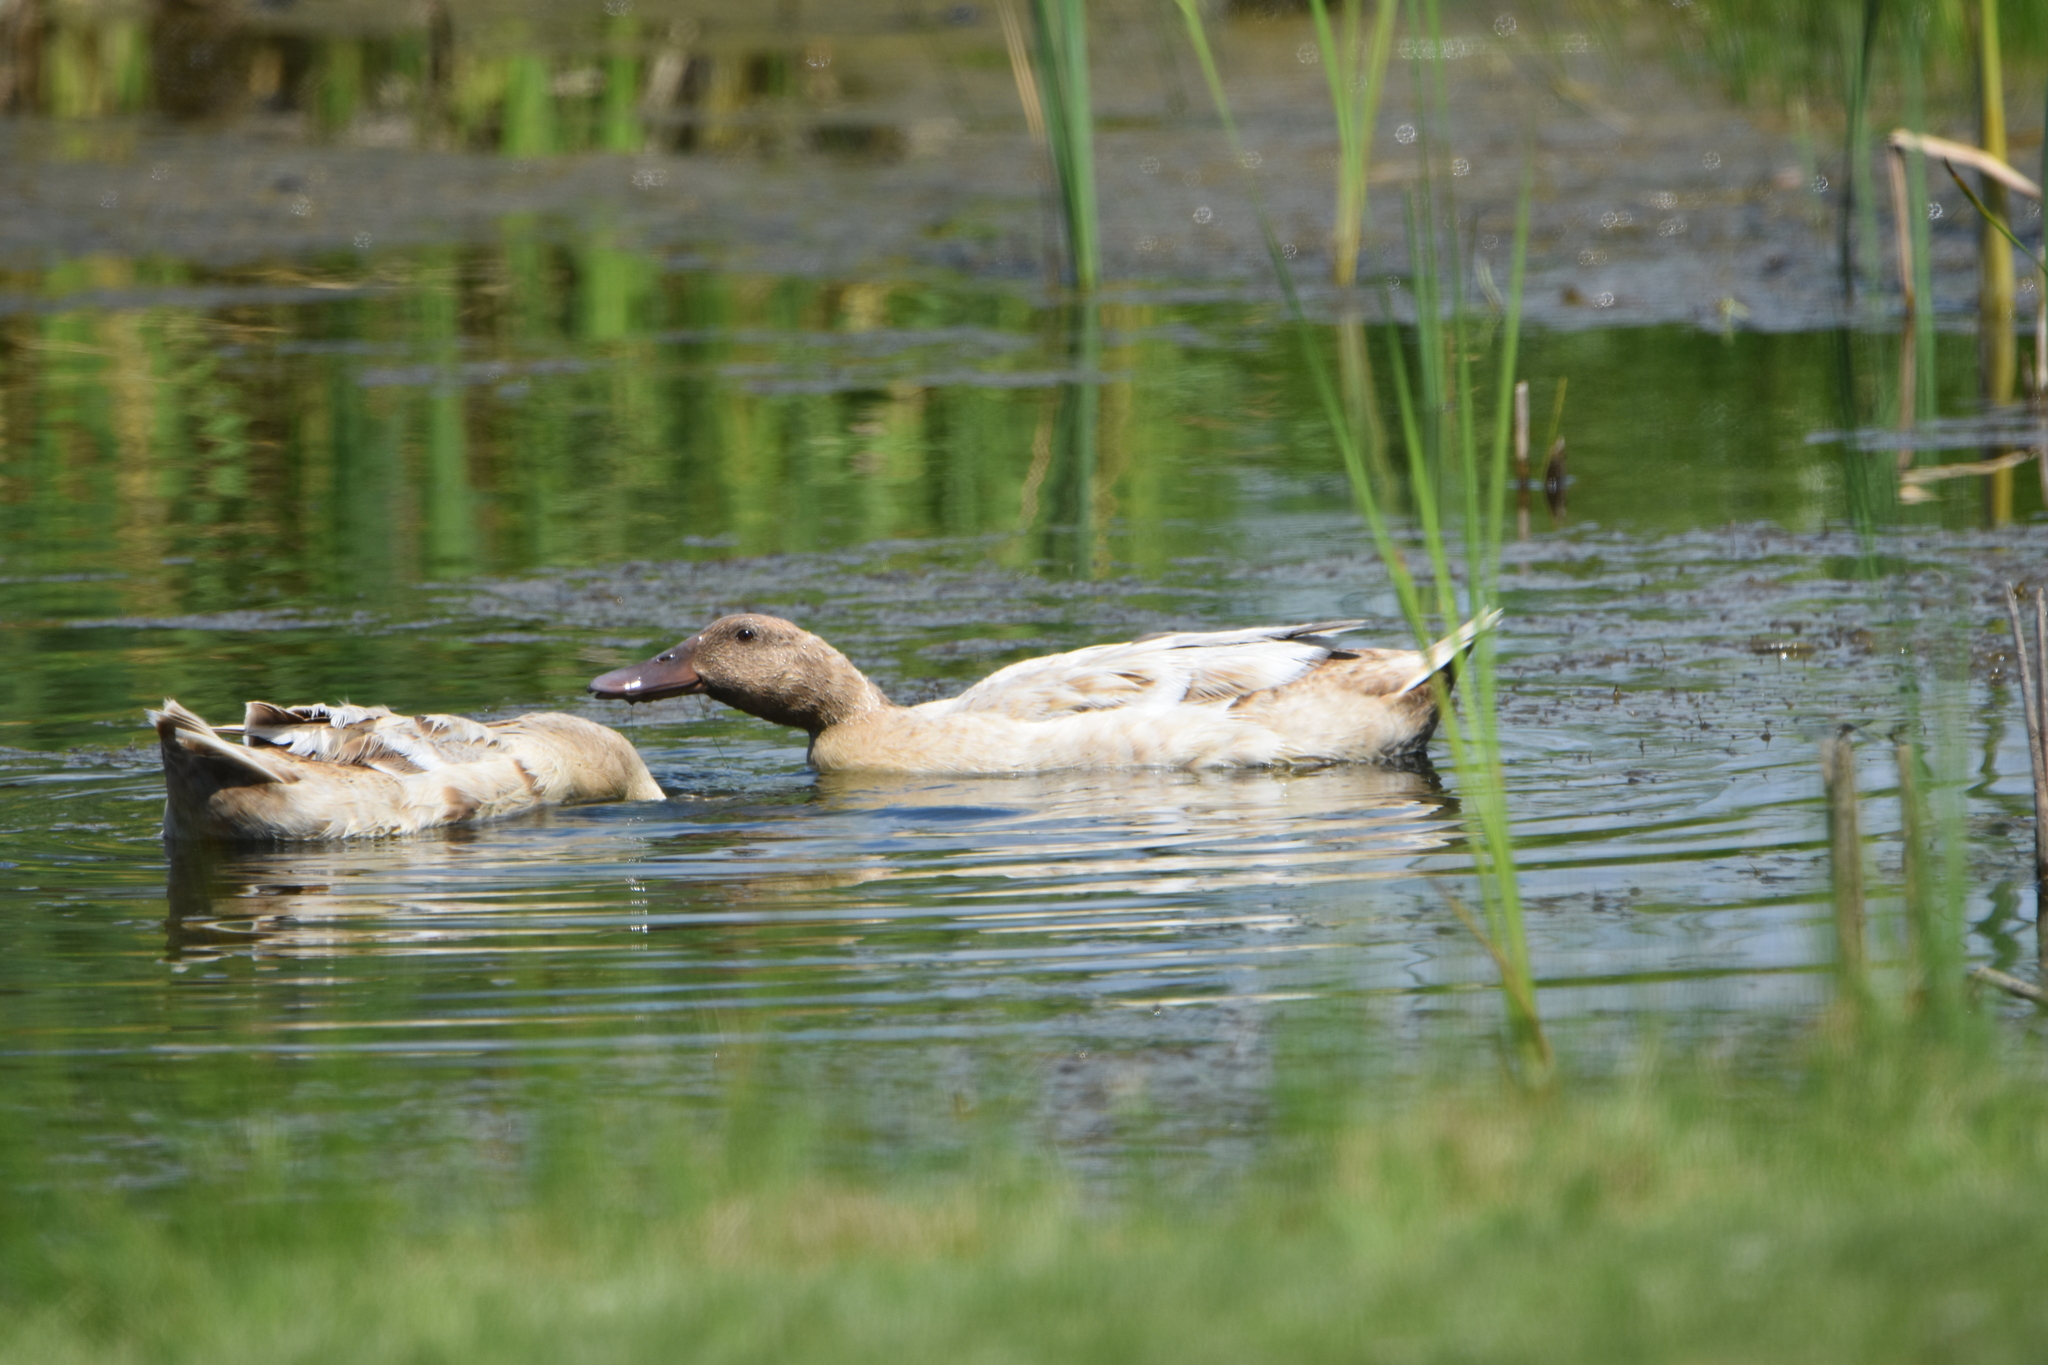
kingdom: Animalia
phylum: Chordata
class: Aves
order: Anseriformes
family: Anatidae
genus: Anas
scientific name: Anas platyrhynchos
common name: Mallard
